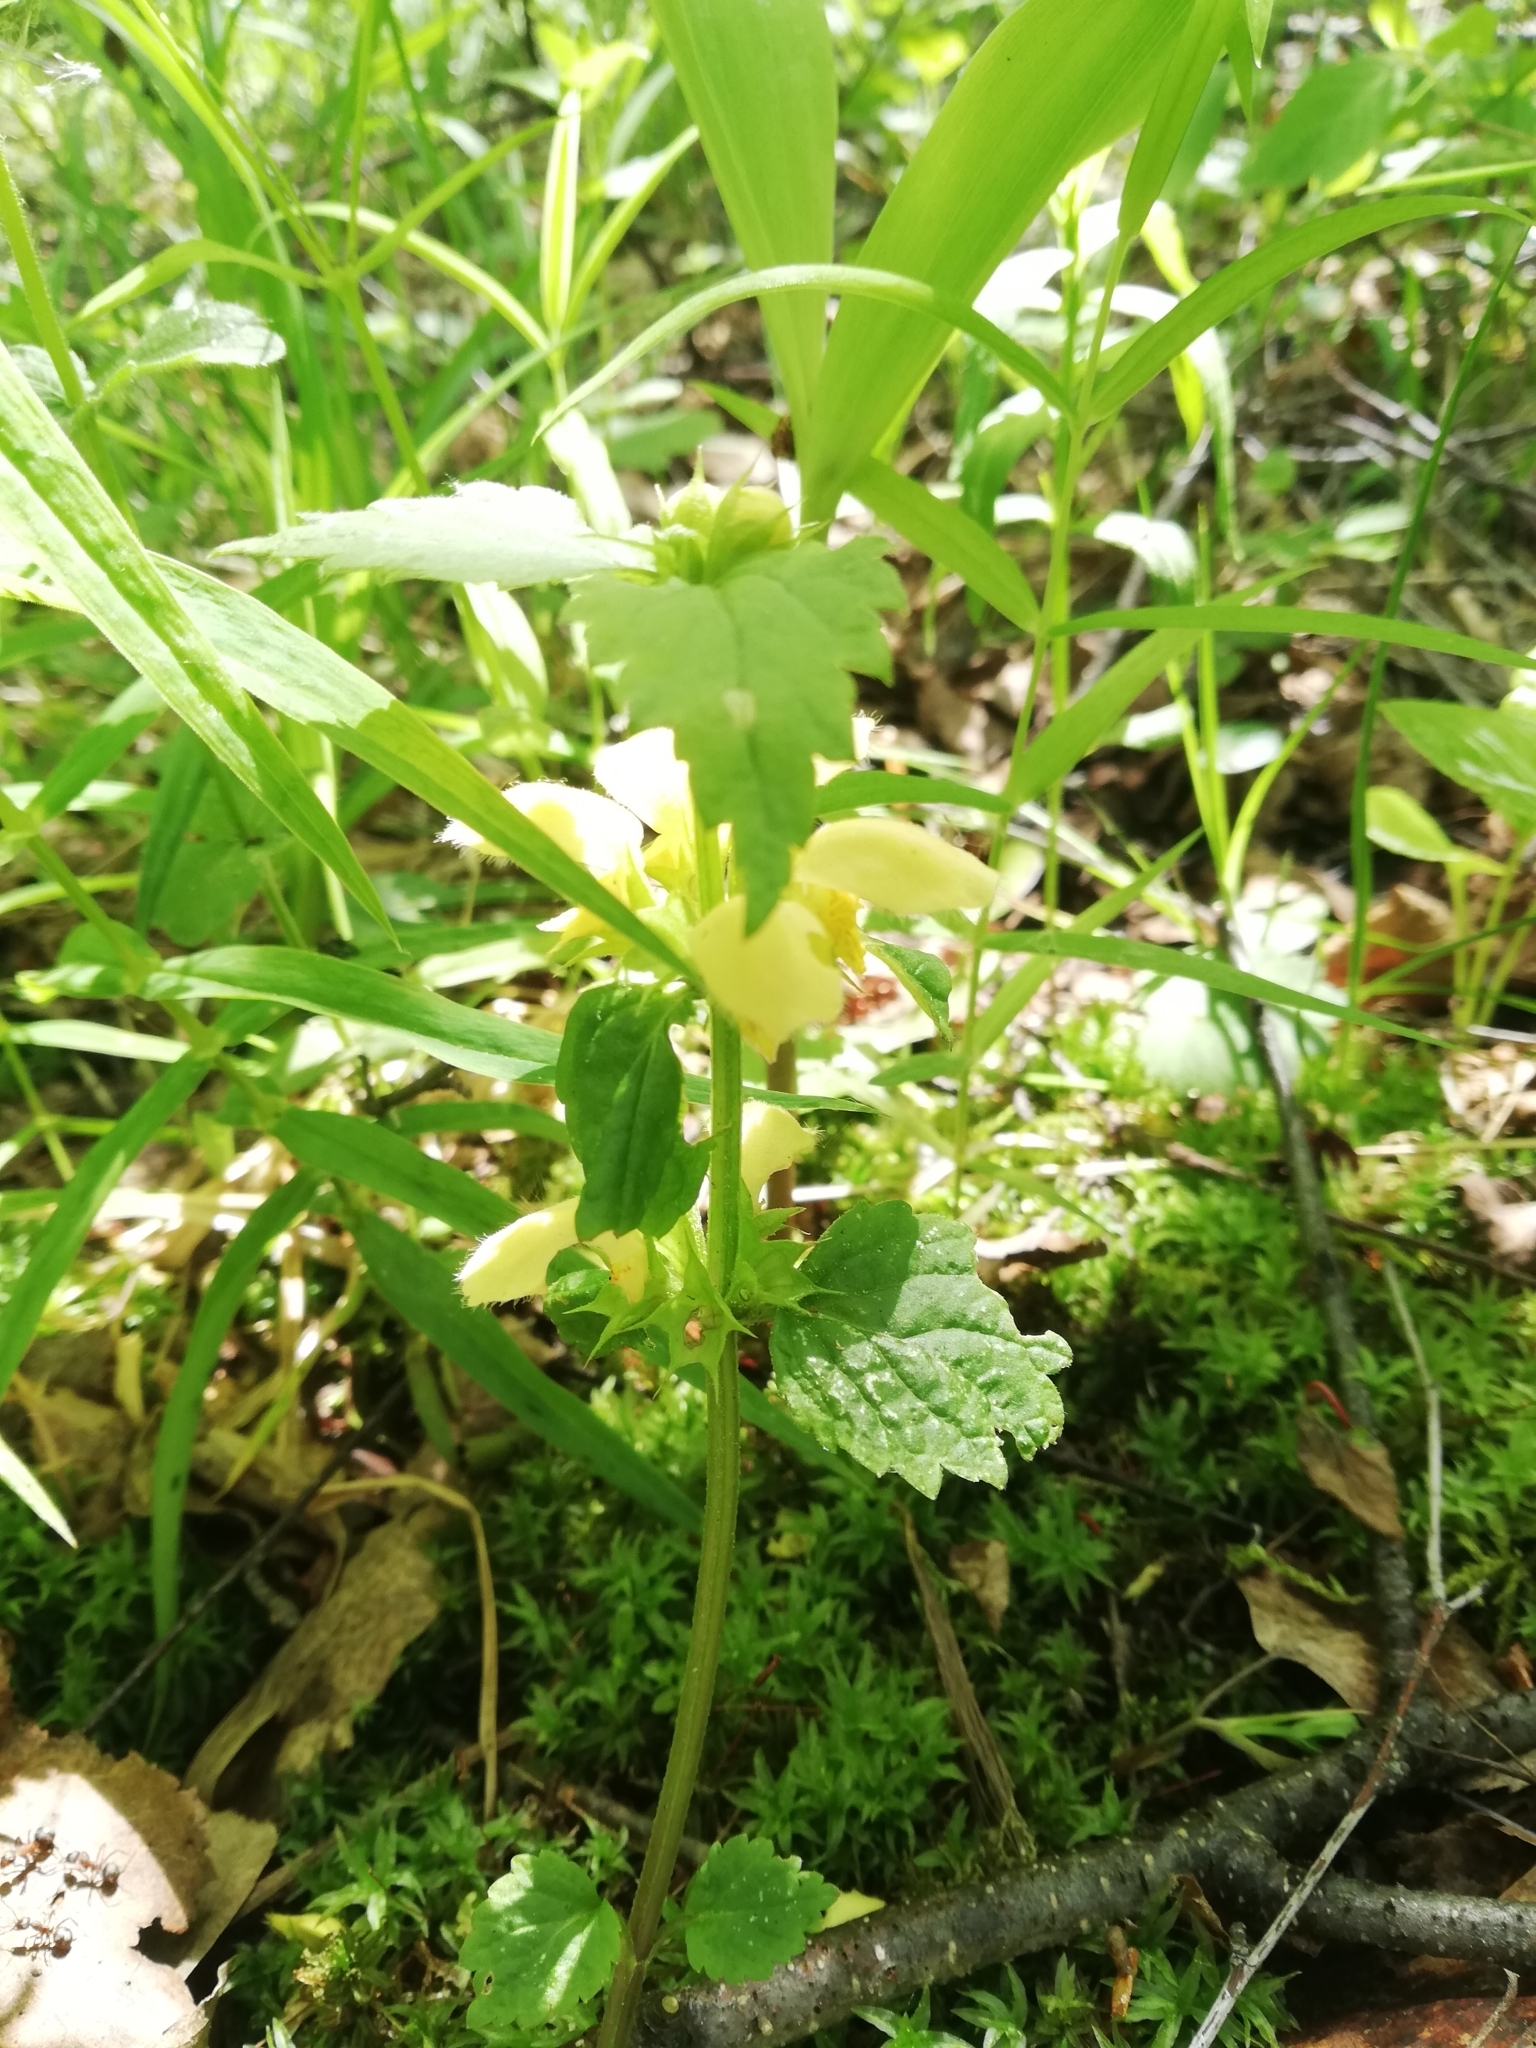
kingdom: Plantae
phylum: Tracheophyta
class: Magnoliopsida
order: Lamiales
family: Lamiaceae
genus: Lamium
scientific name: Lamium galeobdolon
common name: Yellow archangel
